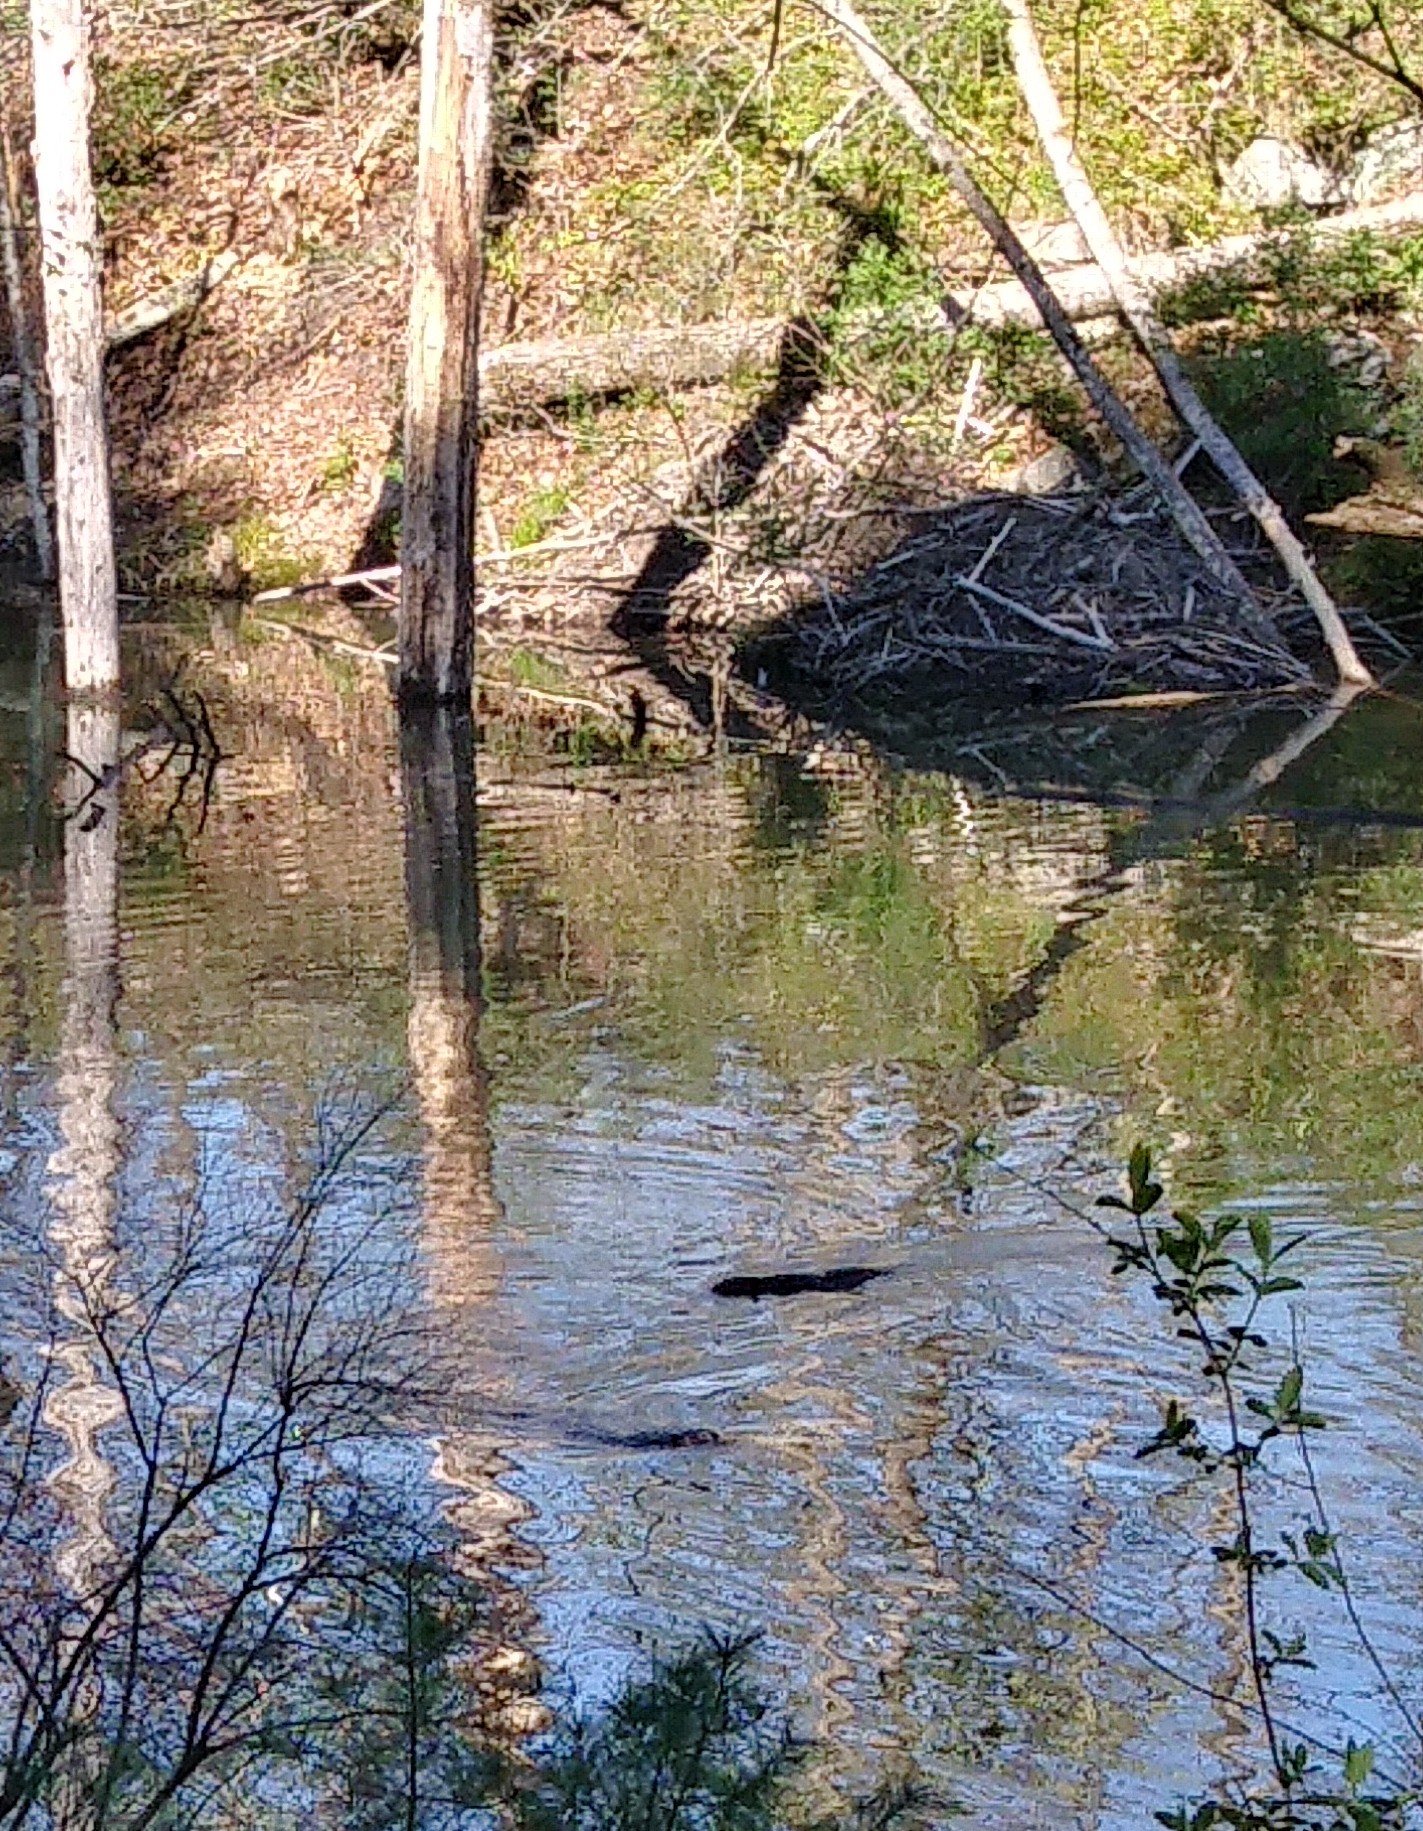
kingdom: Animalia
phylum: Chordata
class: Mammalia
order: Rodentia
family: Castoridae
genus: Castor
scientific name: Castor canadensis
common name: American beaver
